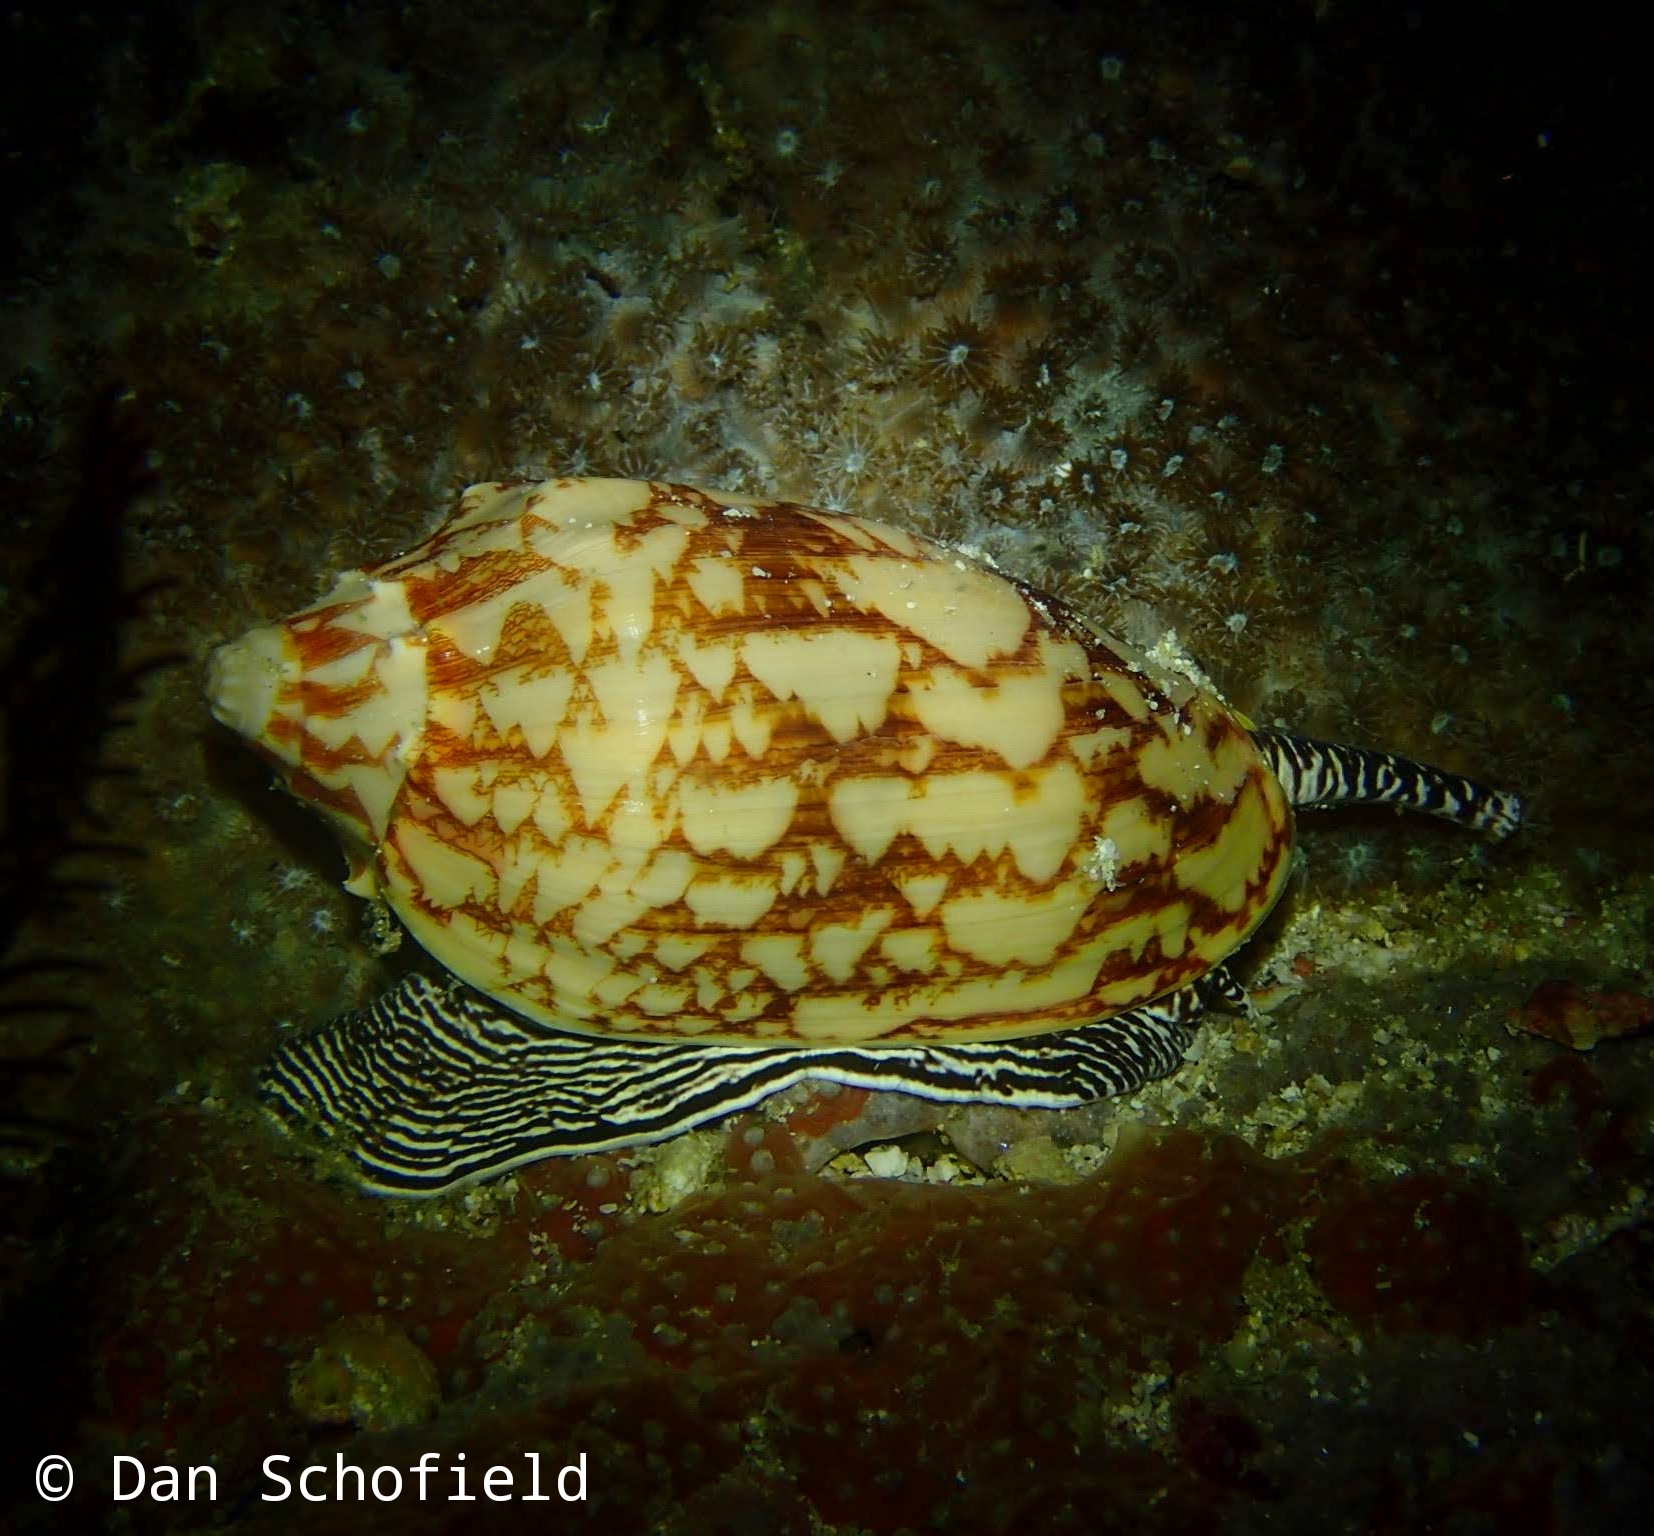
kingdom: Animalia
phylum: Mollusca
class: Gastropoda
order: Neogastropoda
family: Volutidae
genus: Cymbiola
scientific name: Cymbiola vespertilio
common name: Bat volute
